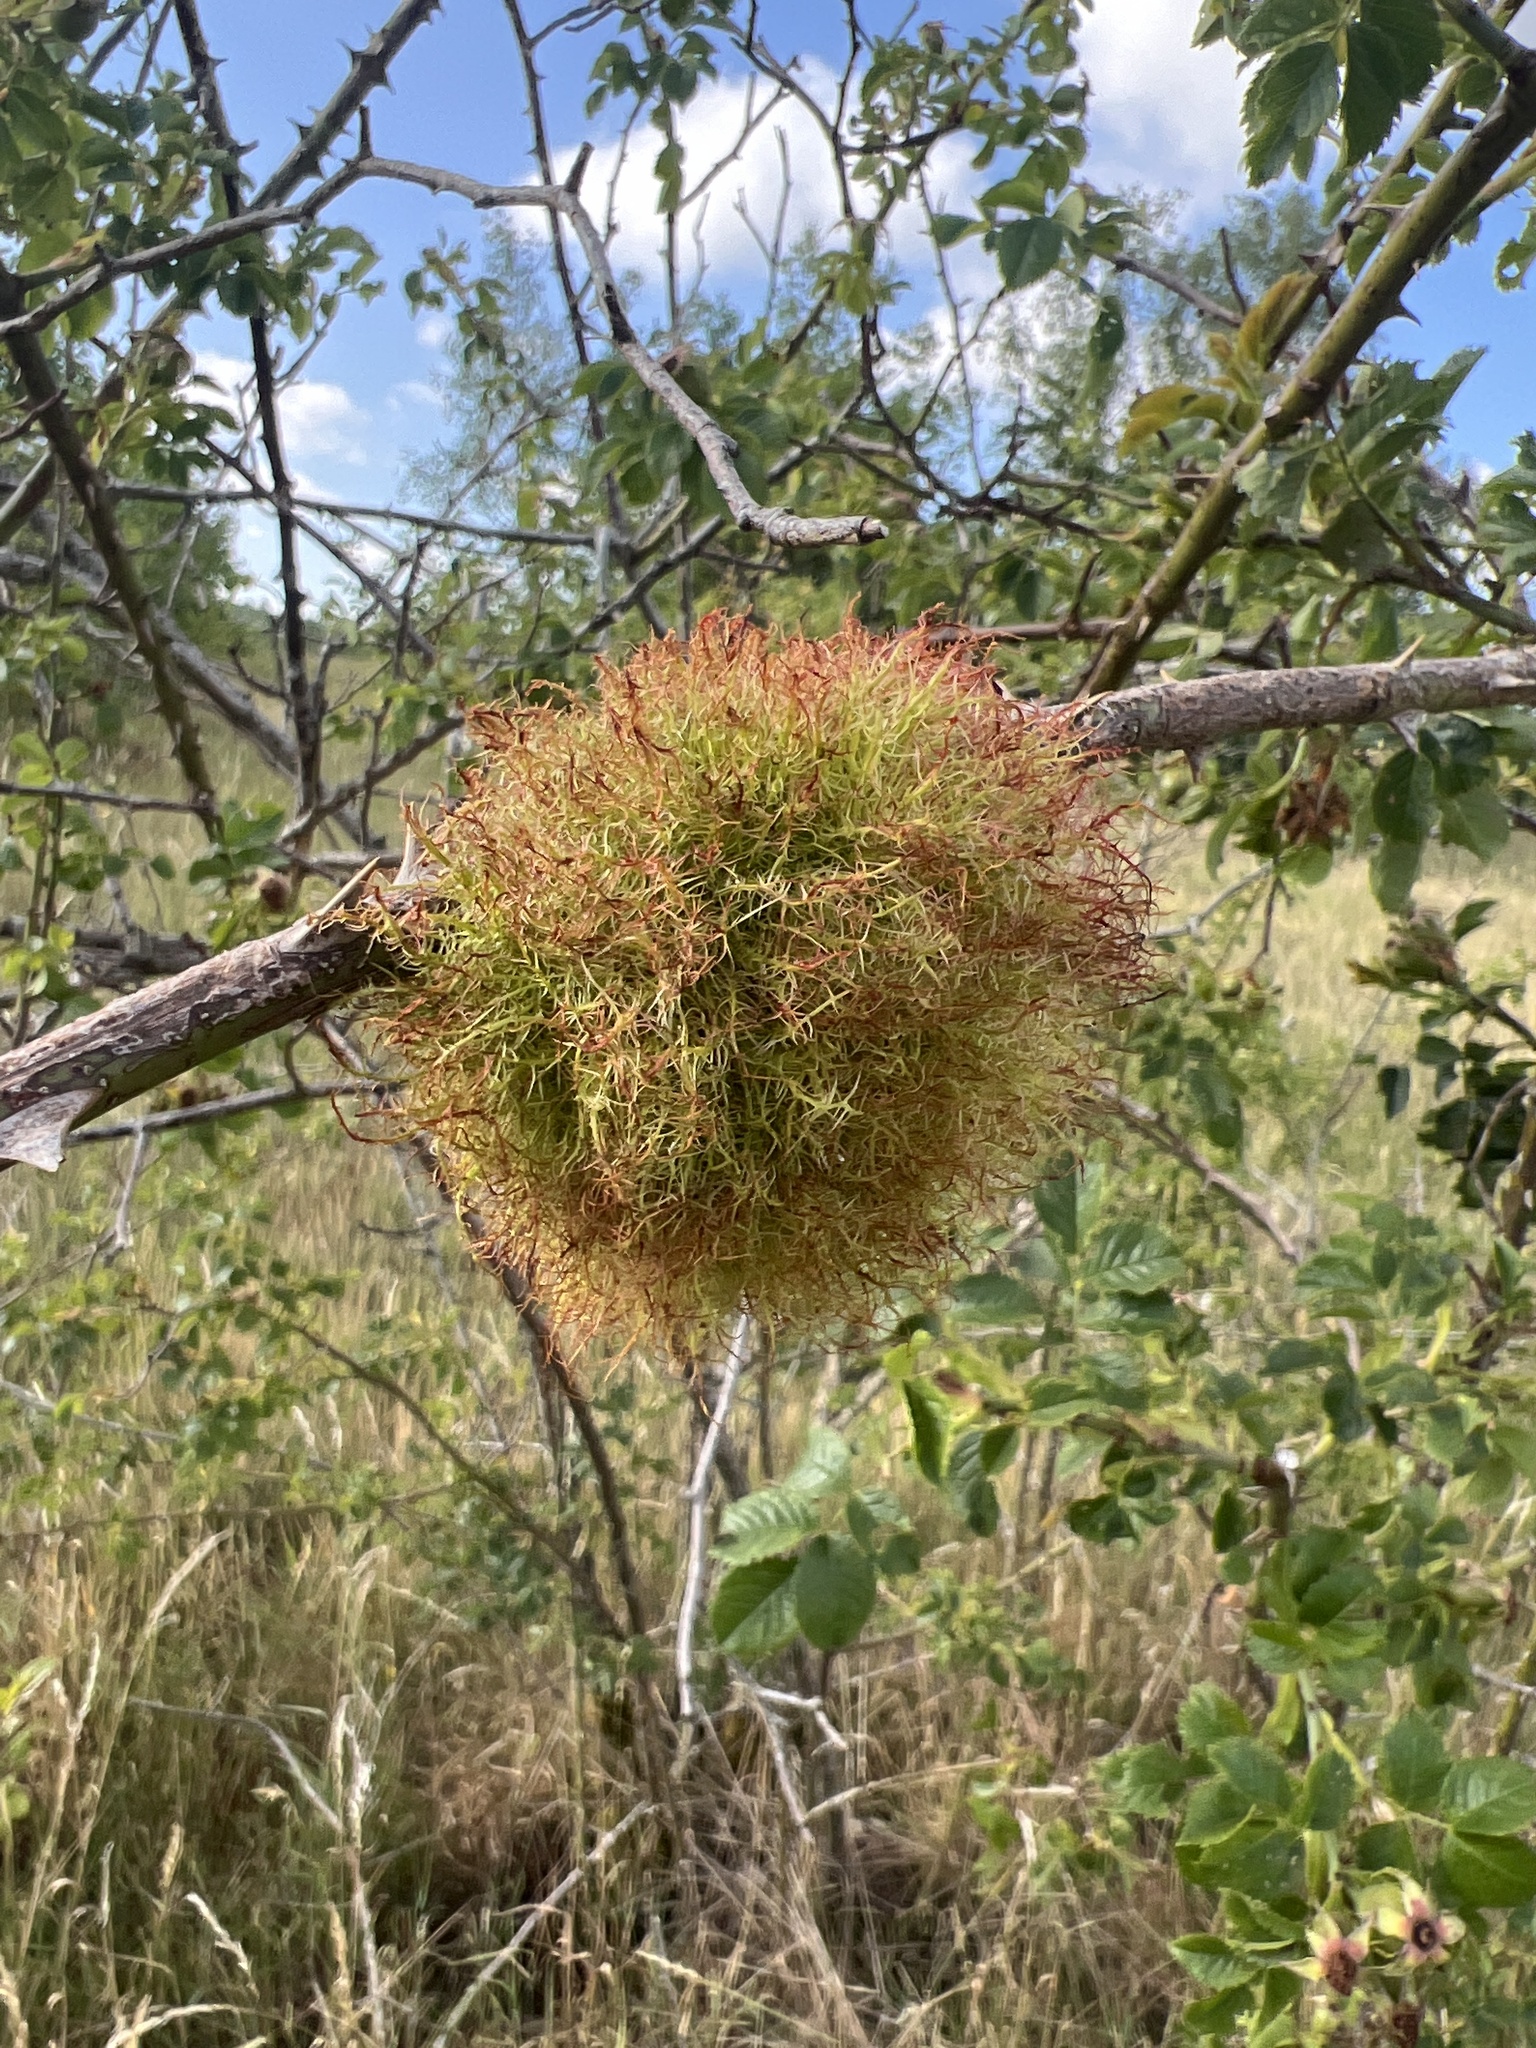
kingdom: Animalia
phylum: Arthropoda
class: Insecta
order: Hymenoptera
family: Cynipidae
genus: Diplolepis
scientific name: Diplolepis rosae
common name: Bedeguar gall
